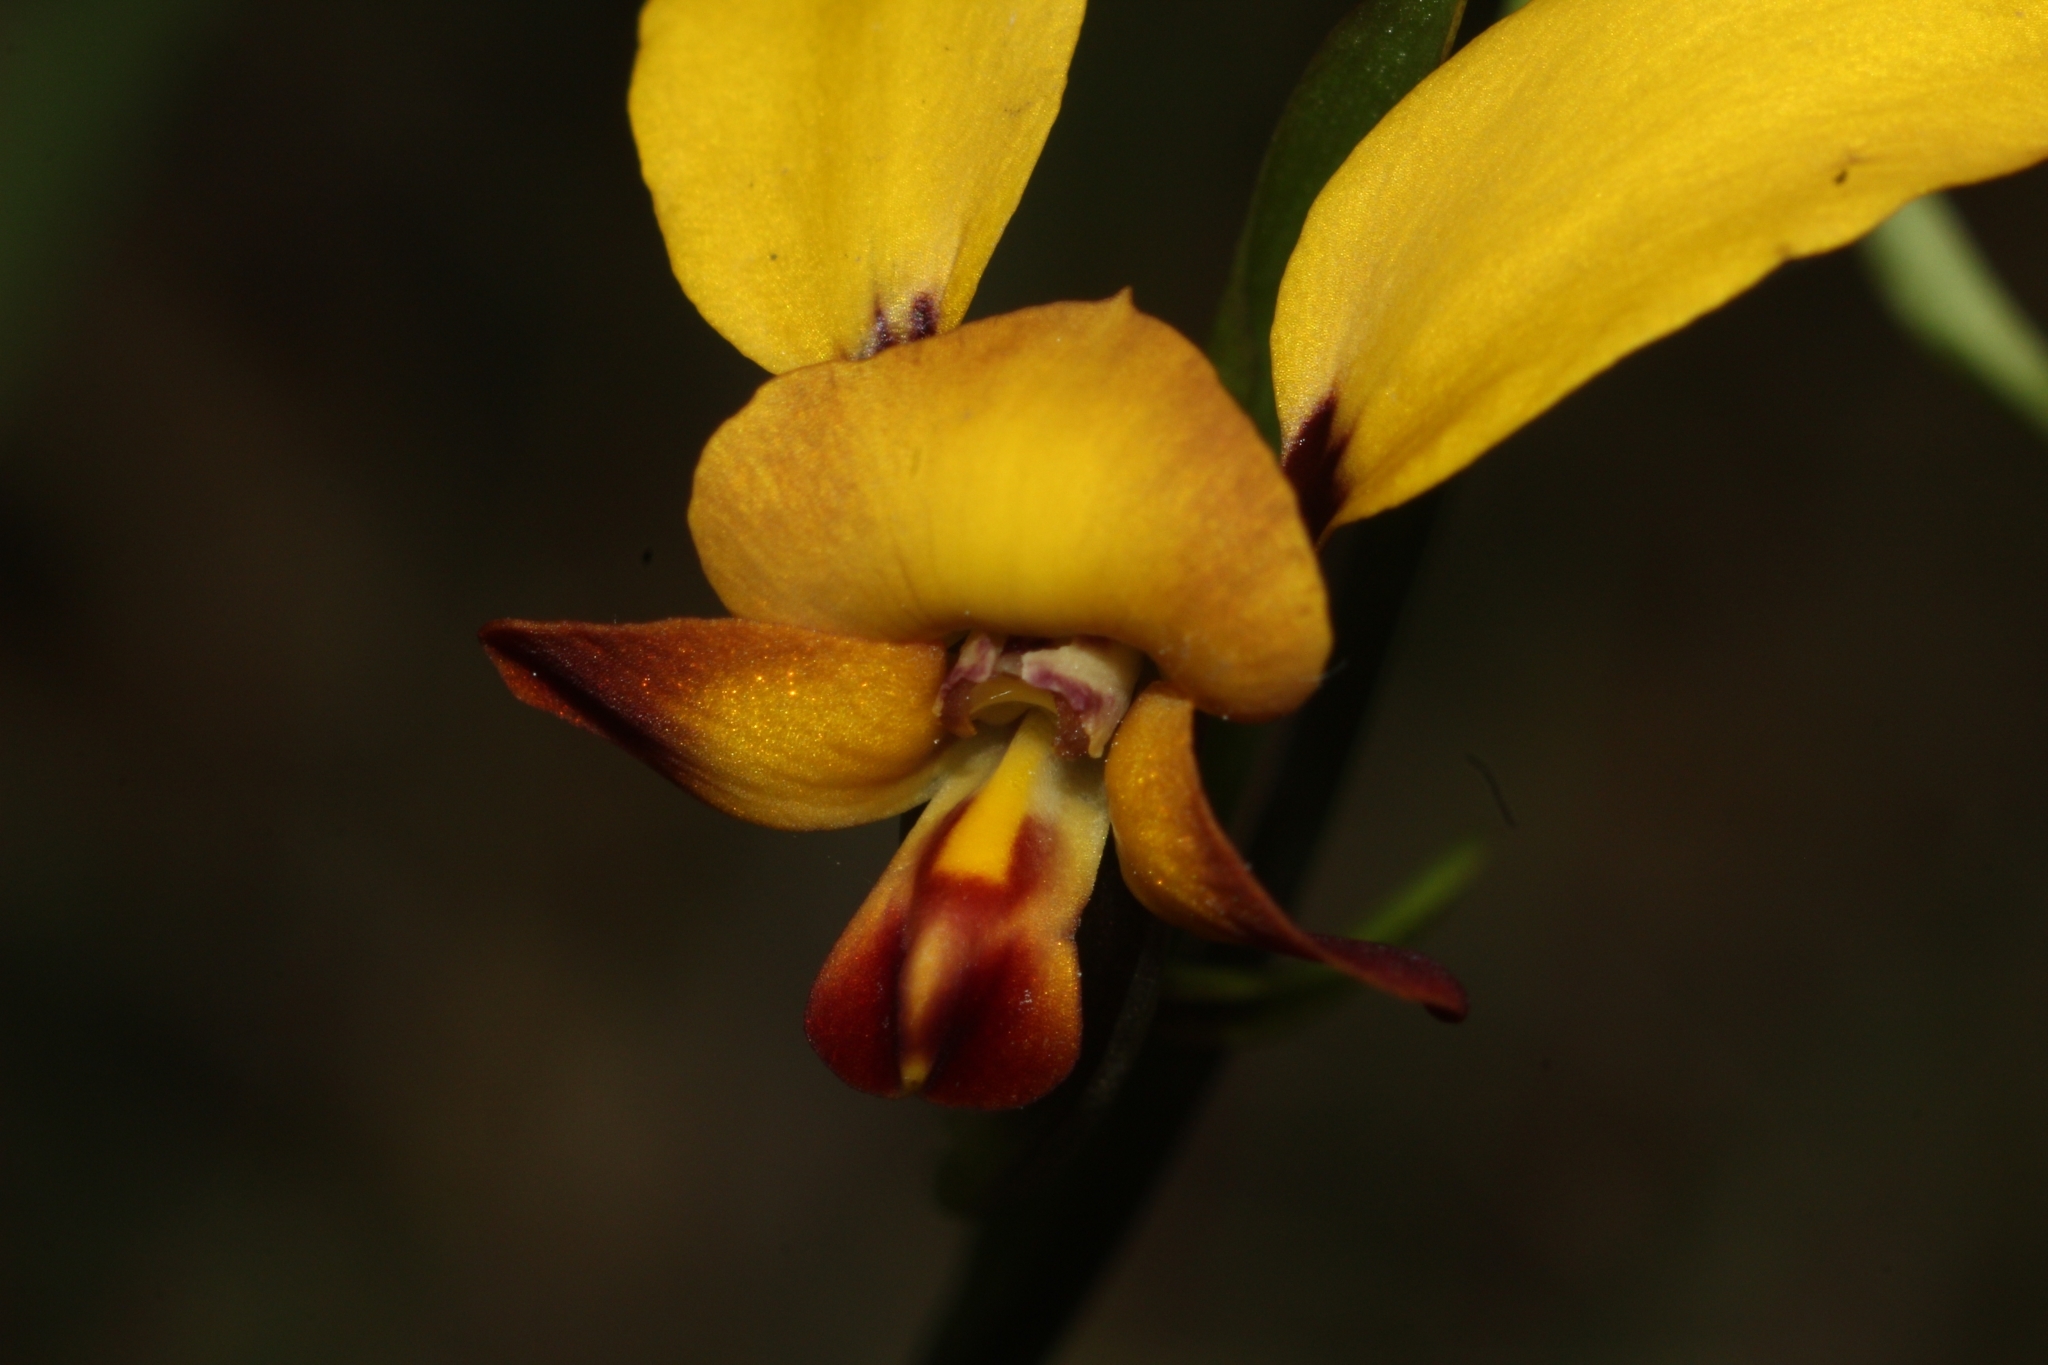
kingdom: Plantae
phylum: Tracheophyta
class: Liliopsida
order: Asparagales
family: Orchidaceae
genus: Diuris
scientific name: Diuris brumalis
